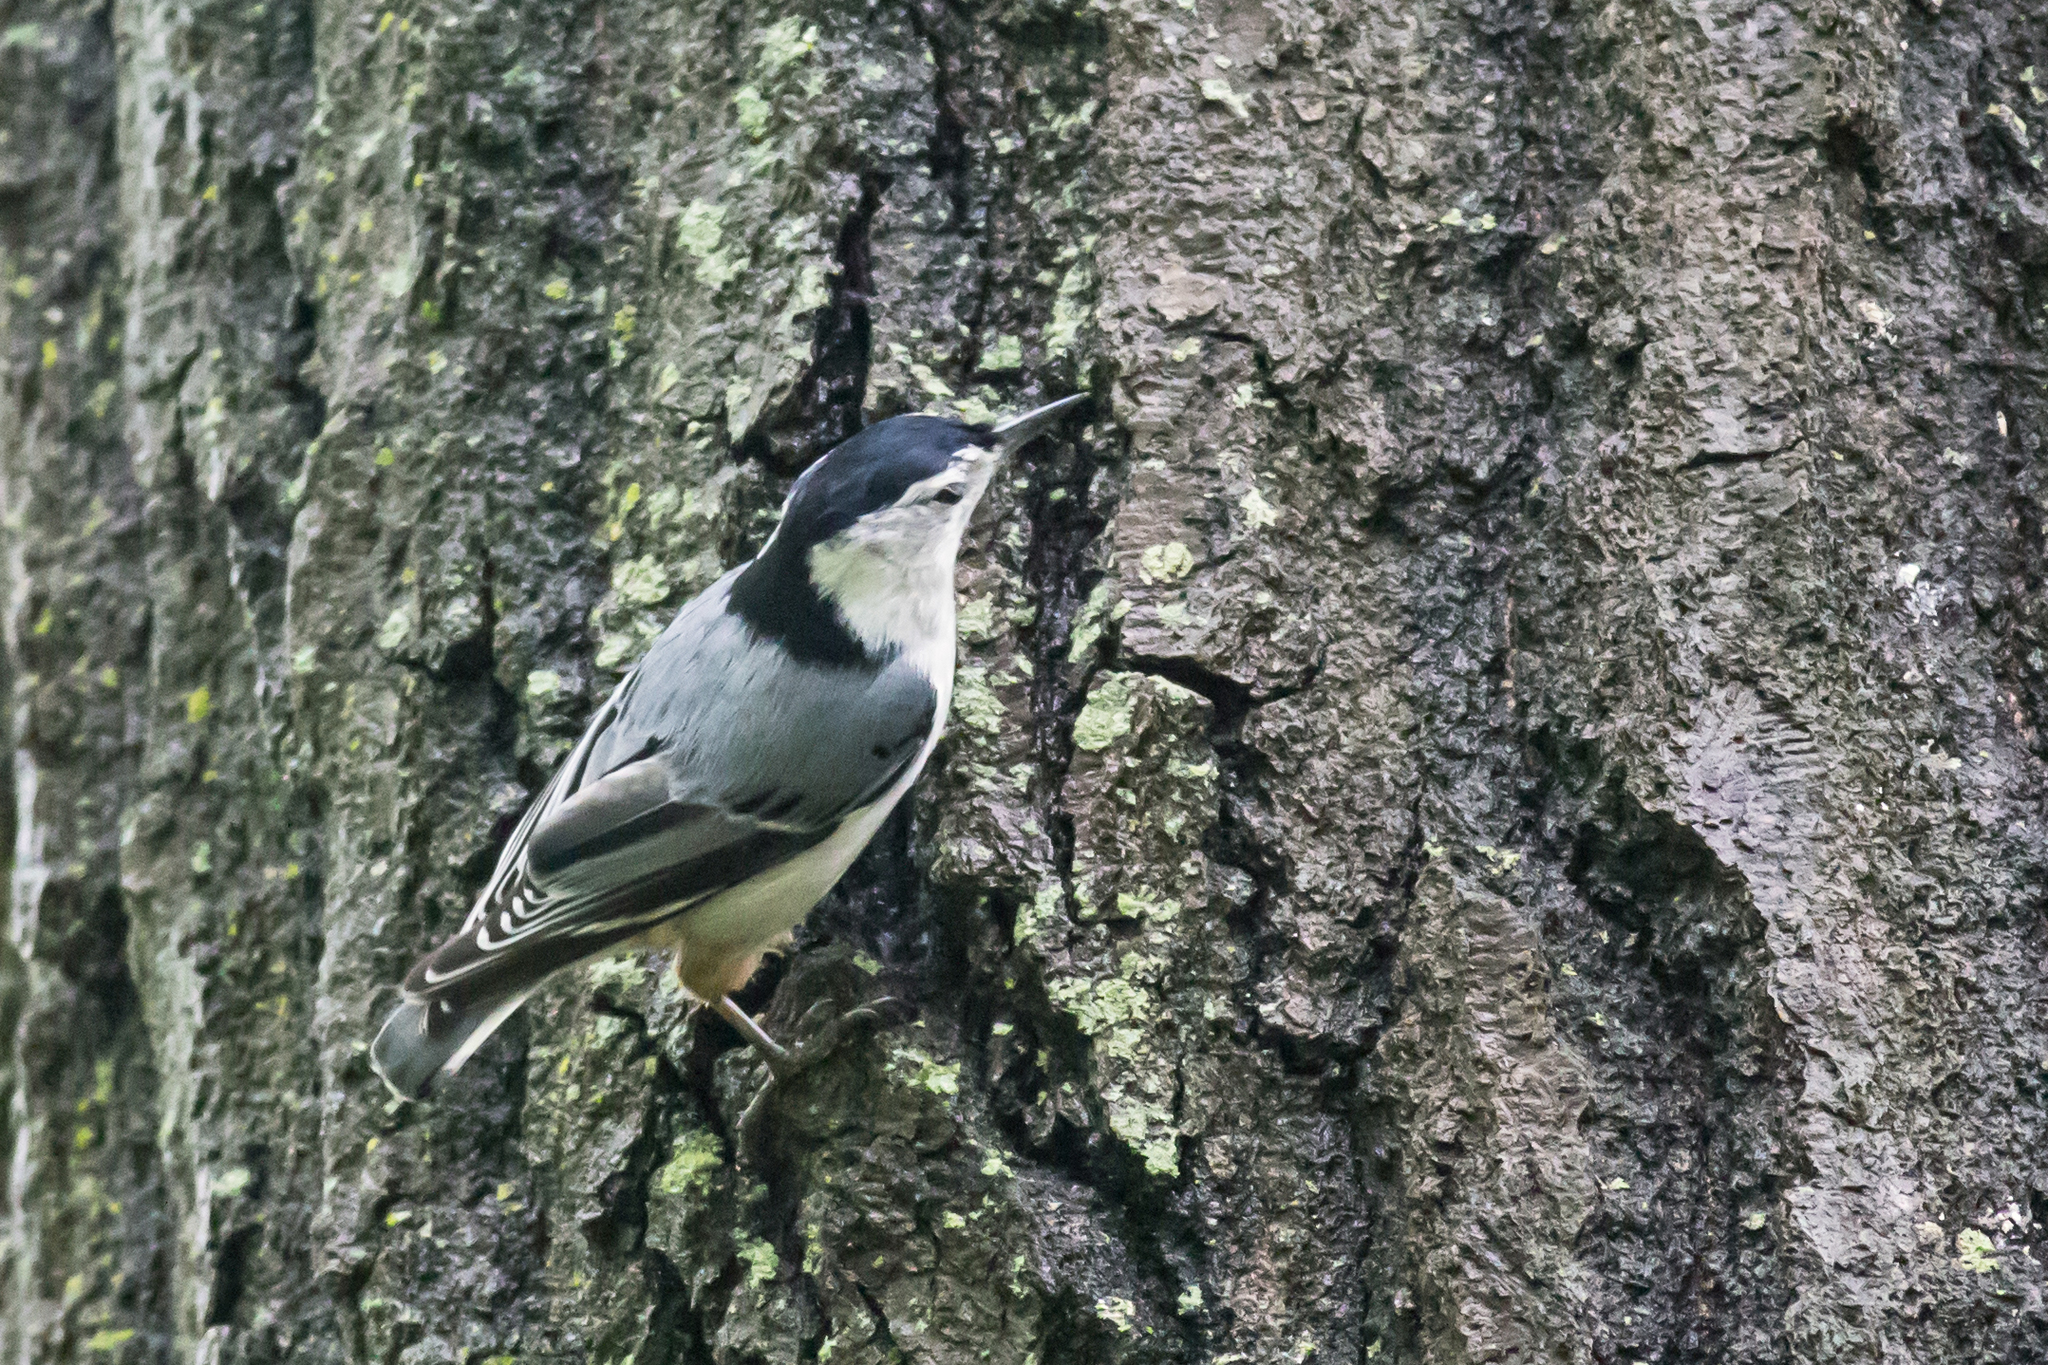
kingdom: Animalia
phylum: Chordata
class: Aves
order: Passeriformes
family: Sittidae
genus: Sitta
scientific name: Sitta carolinensis
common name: White-breasted nuthatch
